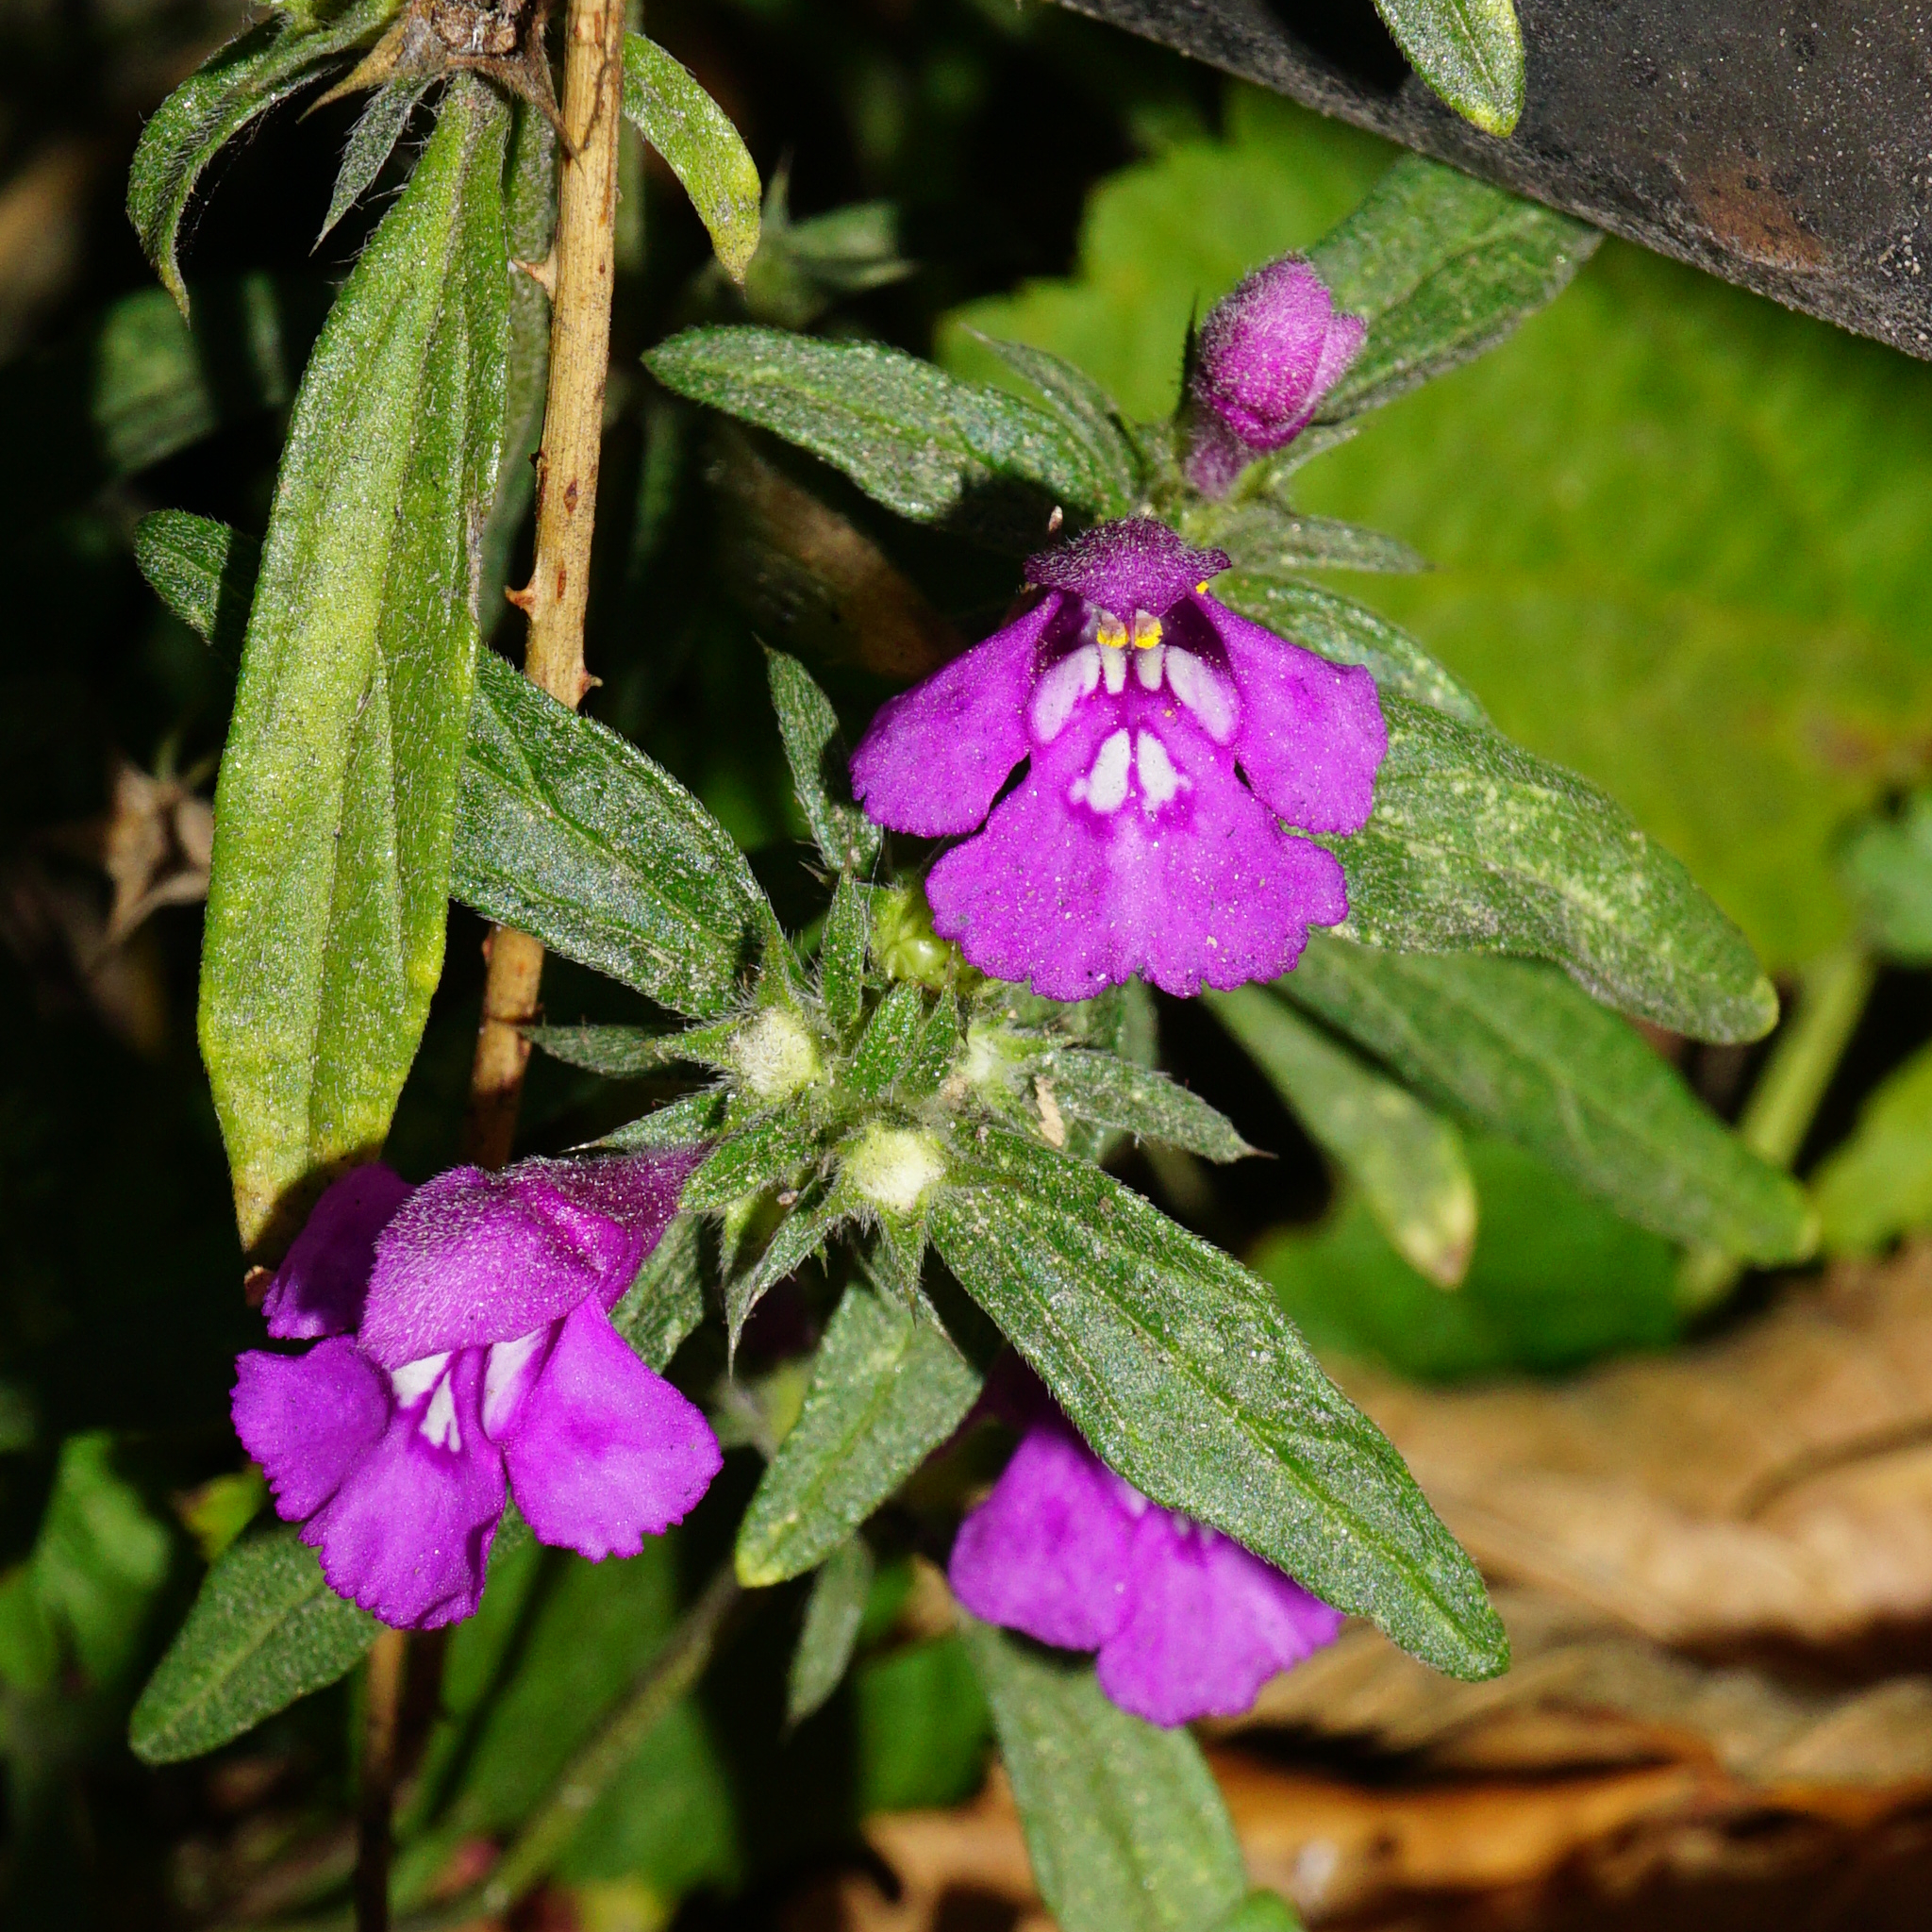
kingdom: Plantae
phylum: Tracheophyta
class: Magnoliopsida
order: Lamiales
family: Lamiaceae
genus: Galeopsis
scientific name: Galeopsis angustifolia
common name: Red hemp-nettle
